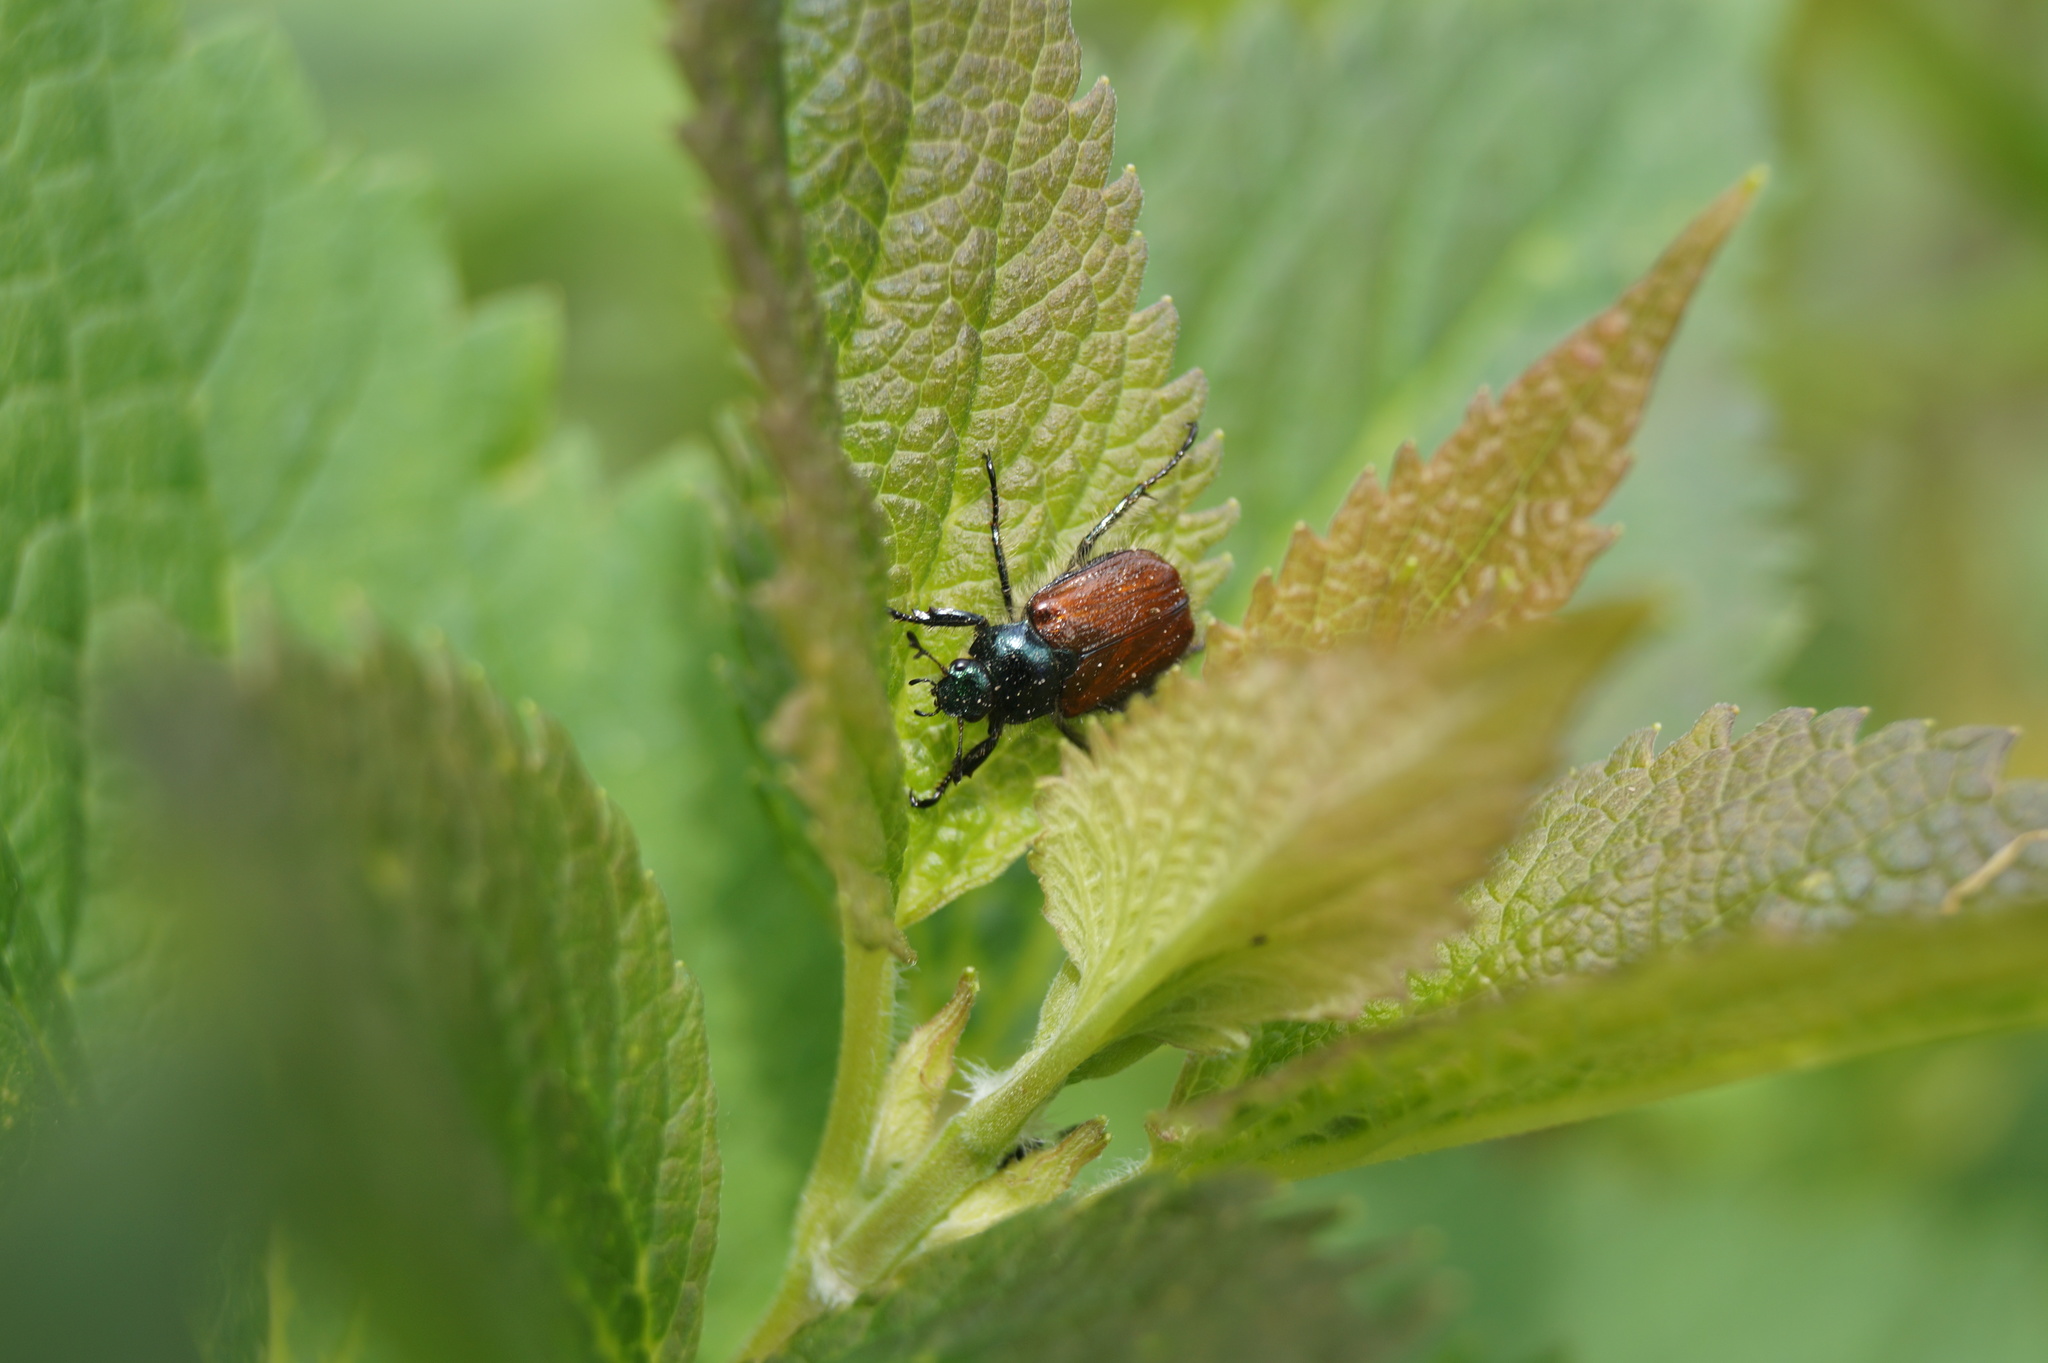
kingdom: Animalia
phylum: Arthropoda
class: Insecta
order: Coleoptera
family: Scarabaeidae
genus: Phyllopertha
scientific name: Phyllopertha horticola
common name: Garden chafer
